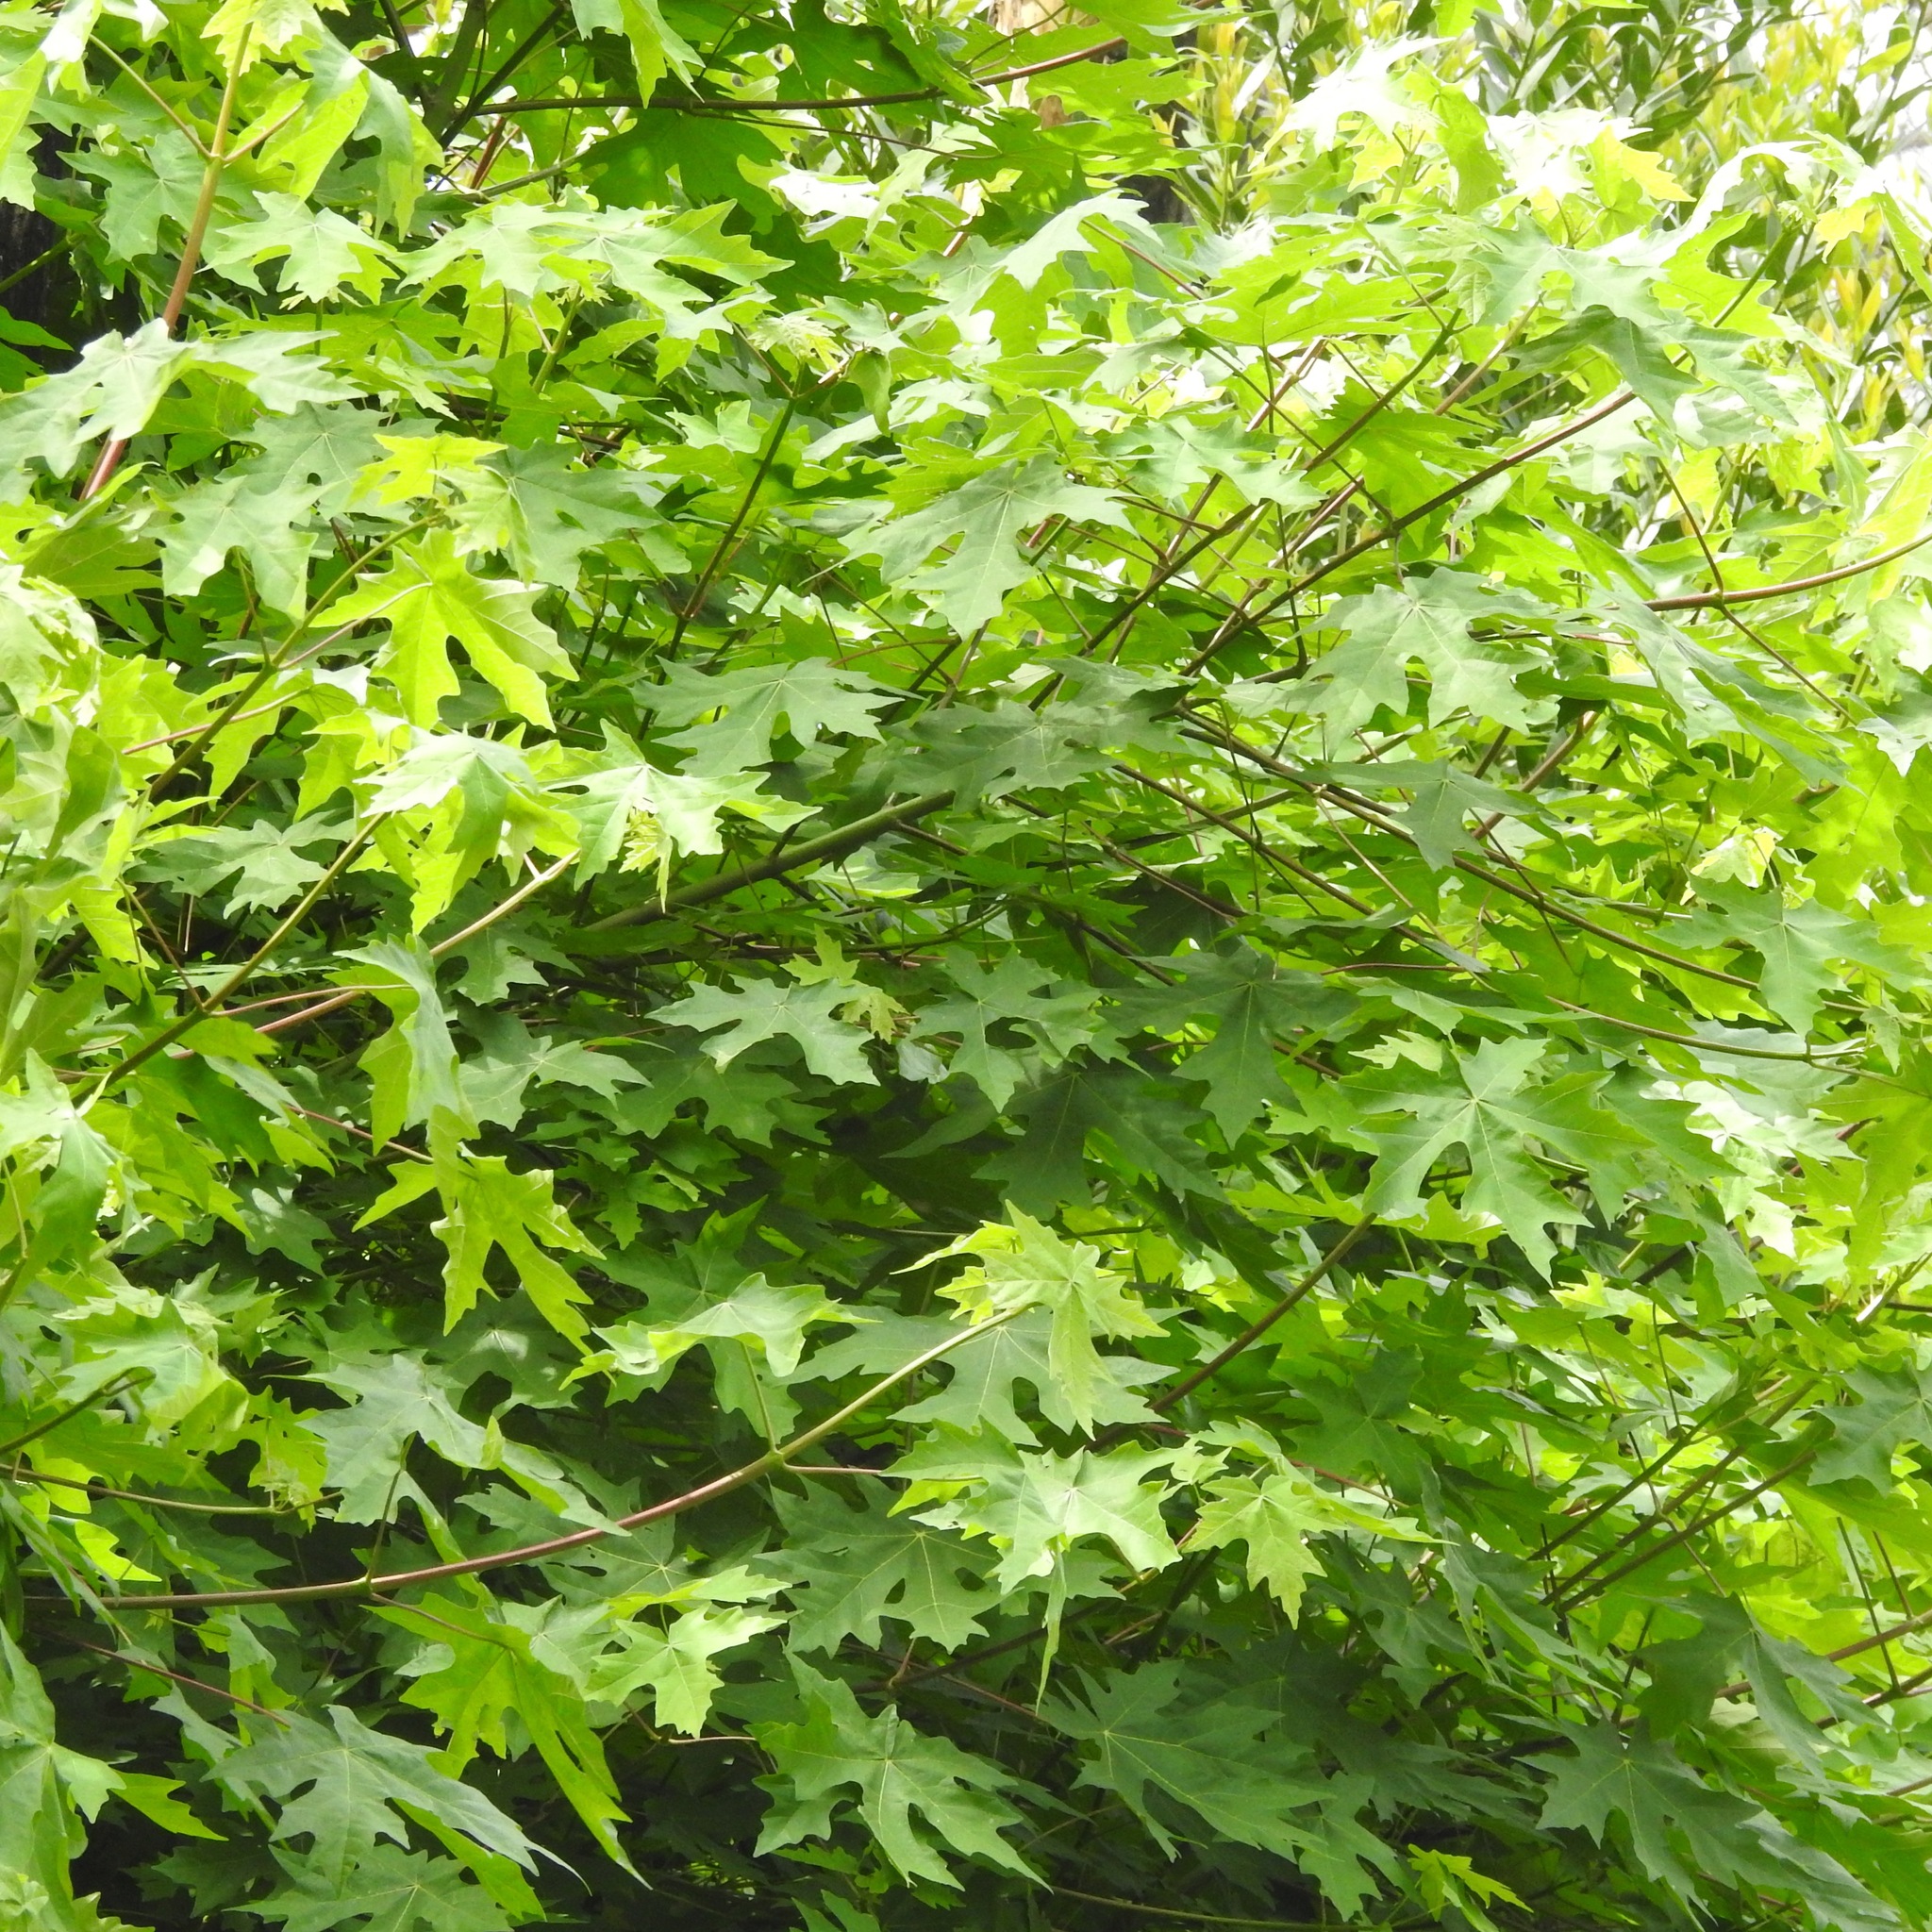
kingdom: Plantae
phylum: Tracheophyta
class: Magnoliopsida
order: Sapindales
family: Sapindaceae
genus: Acer
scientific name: Acer macrophyllum
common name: Oregon maple
